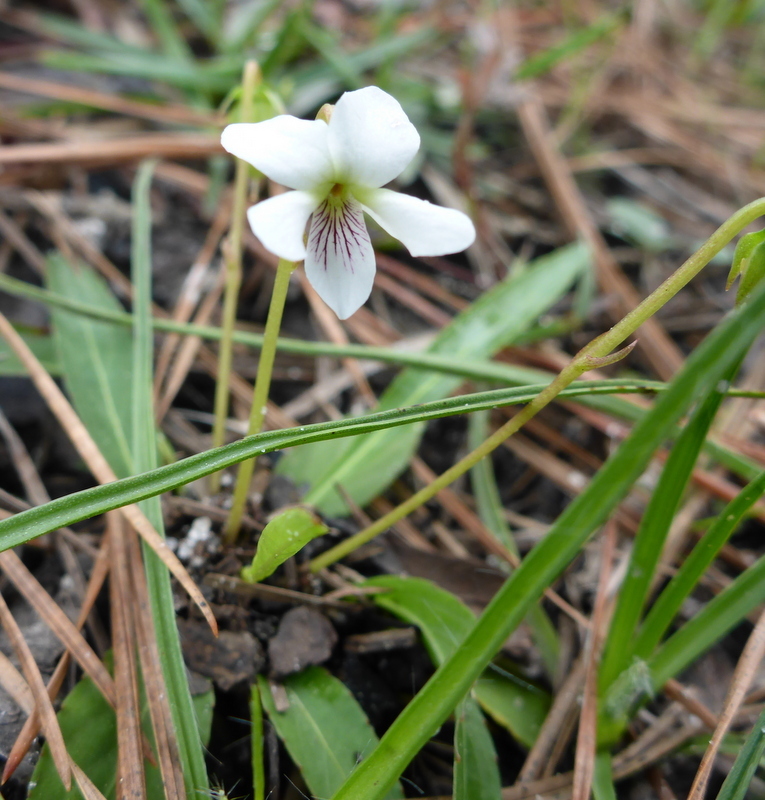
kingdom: Plantae
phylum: Tracheophyta
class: Magnoliopsida
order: Malpighiales
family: Violaceae
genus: Viola
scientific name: Viola lanceolata
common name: Bog white violet
